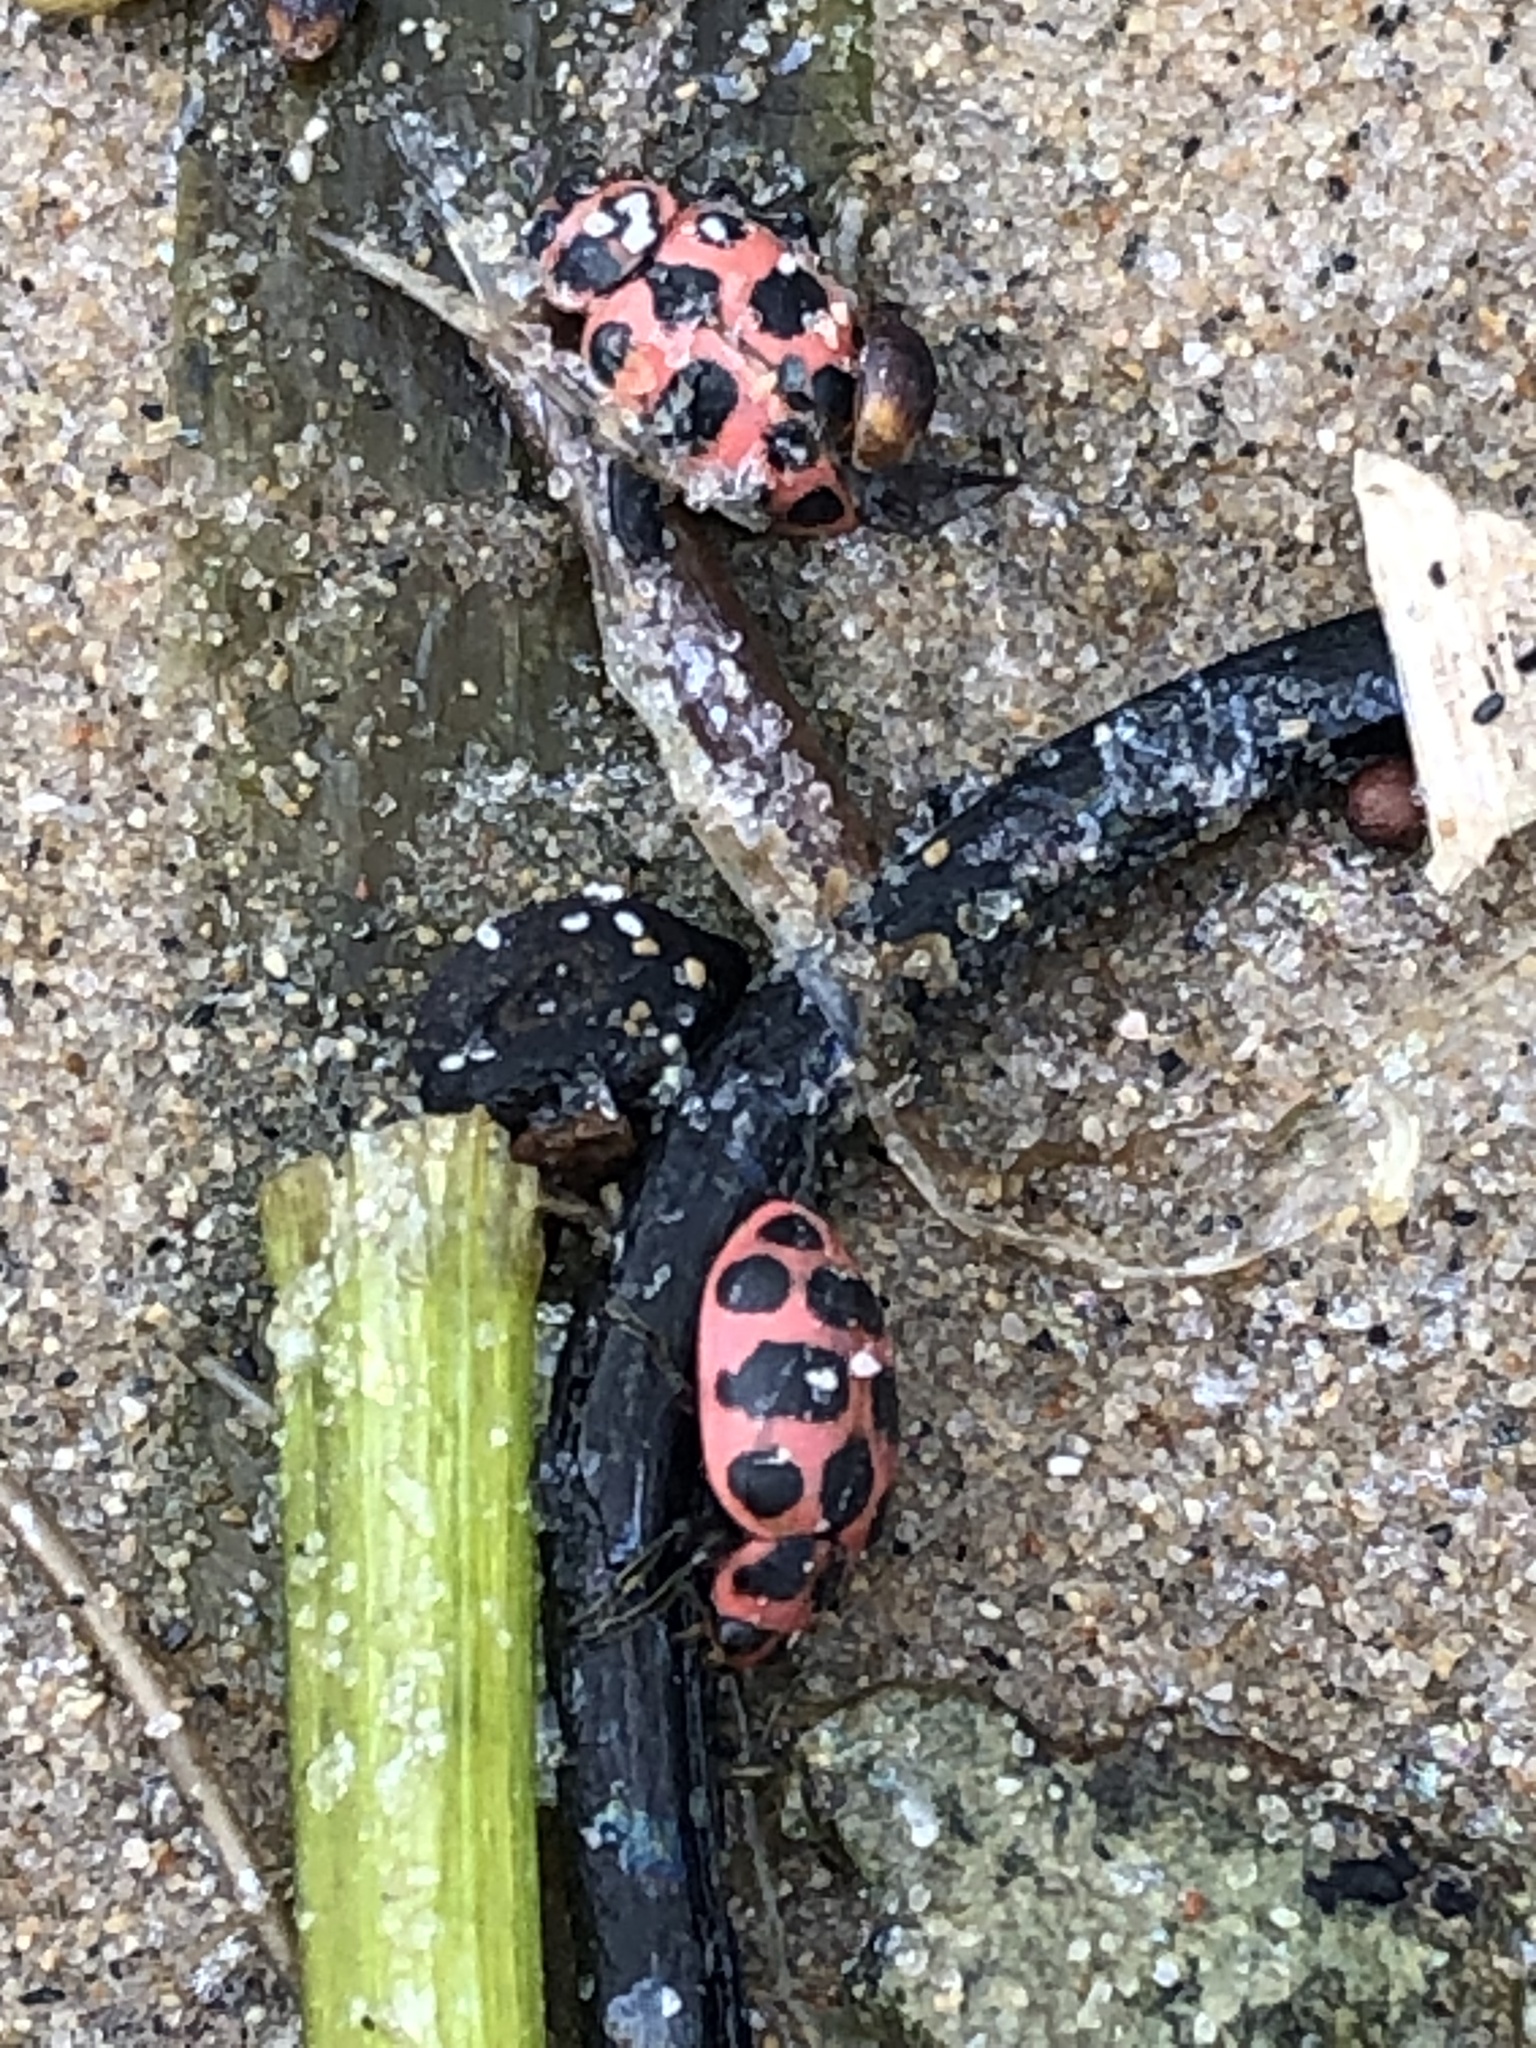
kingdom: Animalia
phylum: Arthropoda
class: Insecta
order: Coleoptera
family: Coccinellidae
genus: Coleomegilla
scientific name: Coleomegilla maculata
